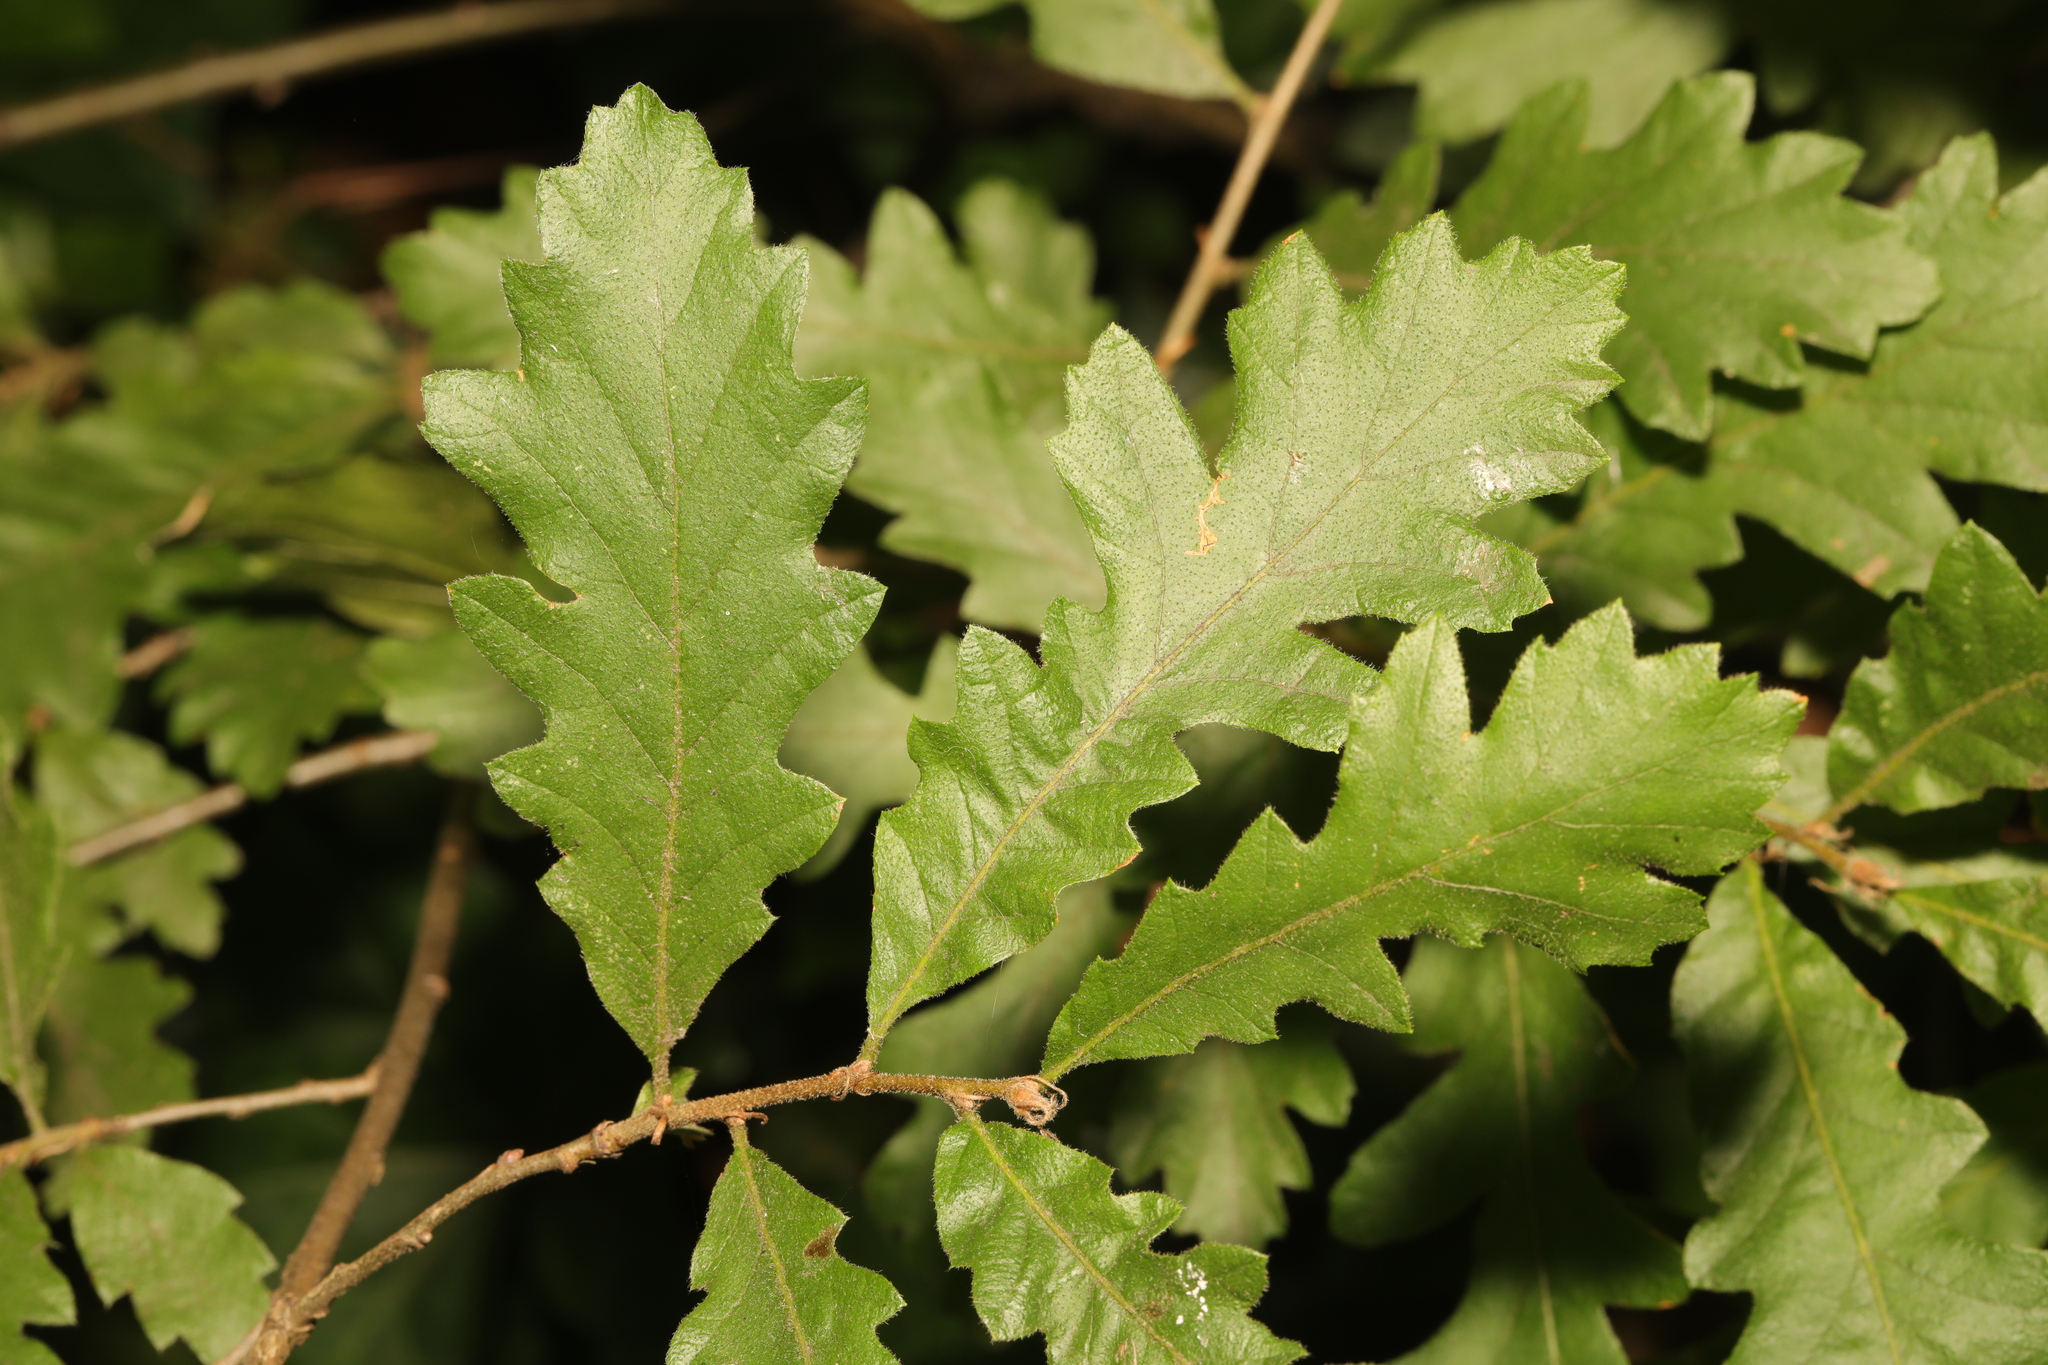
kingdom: Plantae
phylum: Tracheophyta
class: Magnoliopsida
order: Fagales
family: Fagaceae
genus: Quercus
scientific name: Quercus cerris
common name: Turkey oak
